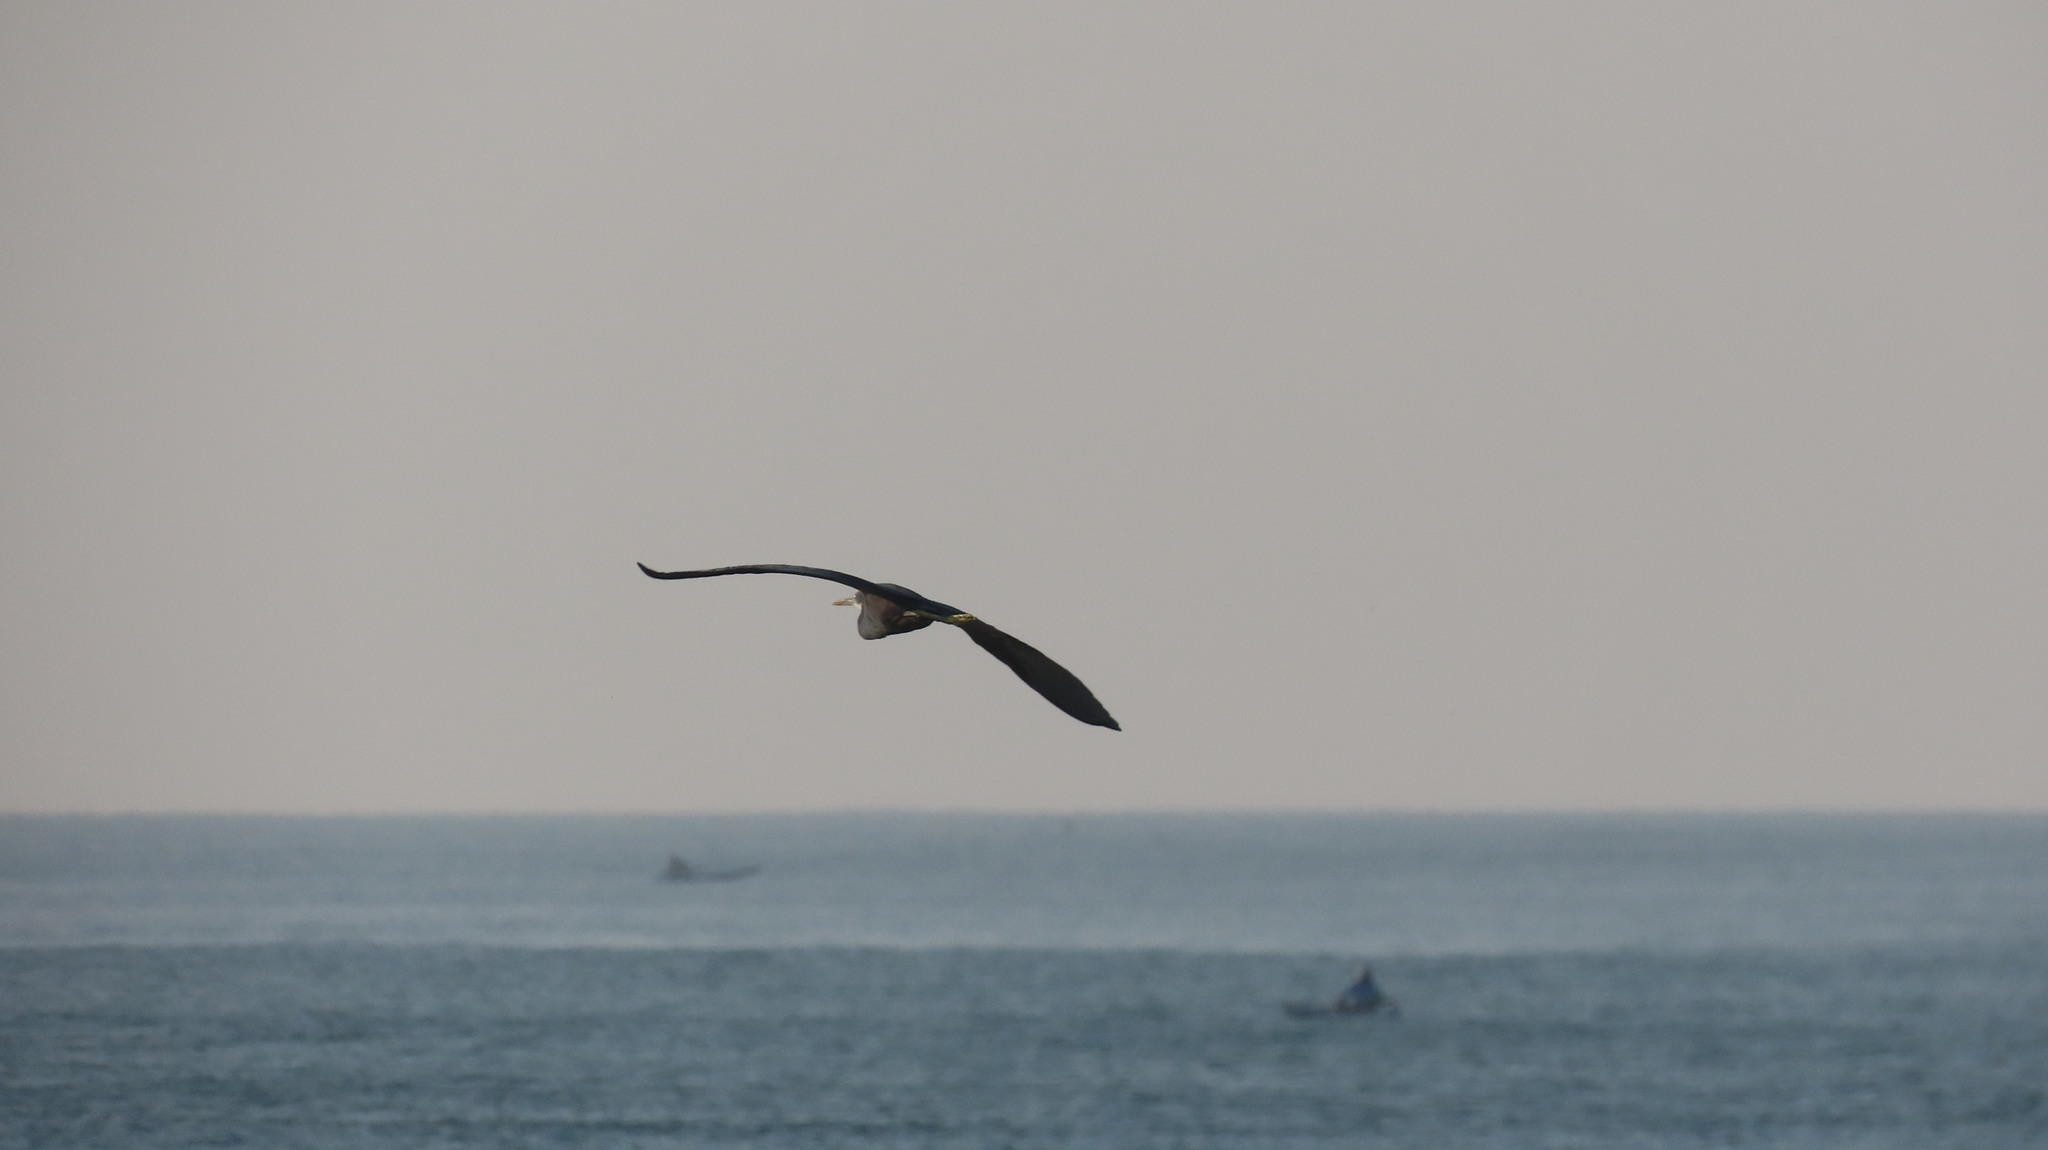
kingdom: Animalia
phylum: Chordata
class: Aves
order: Pelecaniformes
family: Ardeidae
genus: Egretta
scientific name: Egretta gularis
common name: Western reef-heron
